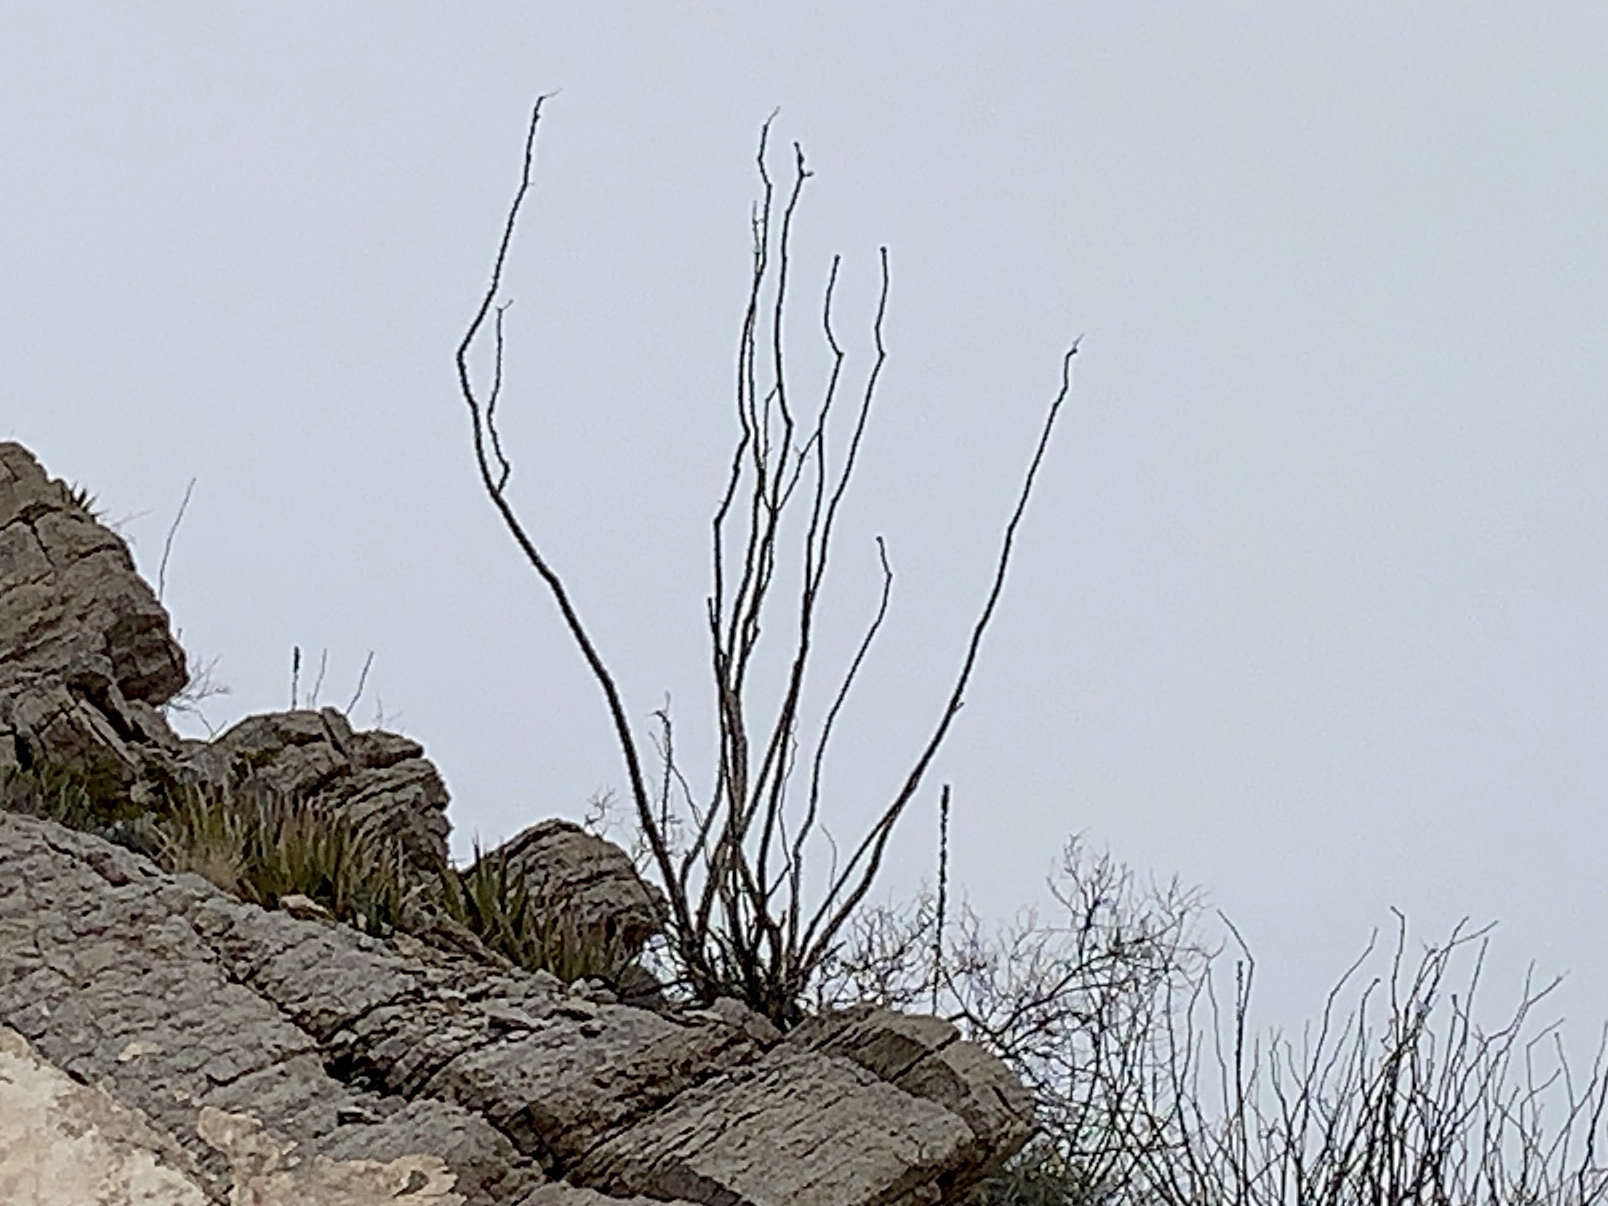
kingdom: Plantae
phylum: Tracheophyta
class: Magnoliopsida
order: Ericales
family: Fouquieriaceae
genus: Fouquieria
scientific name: Fouquieria splendens
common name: Vine-cactus
